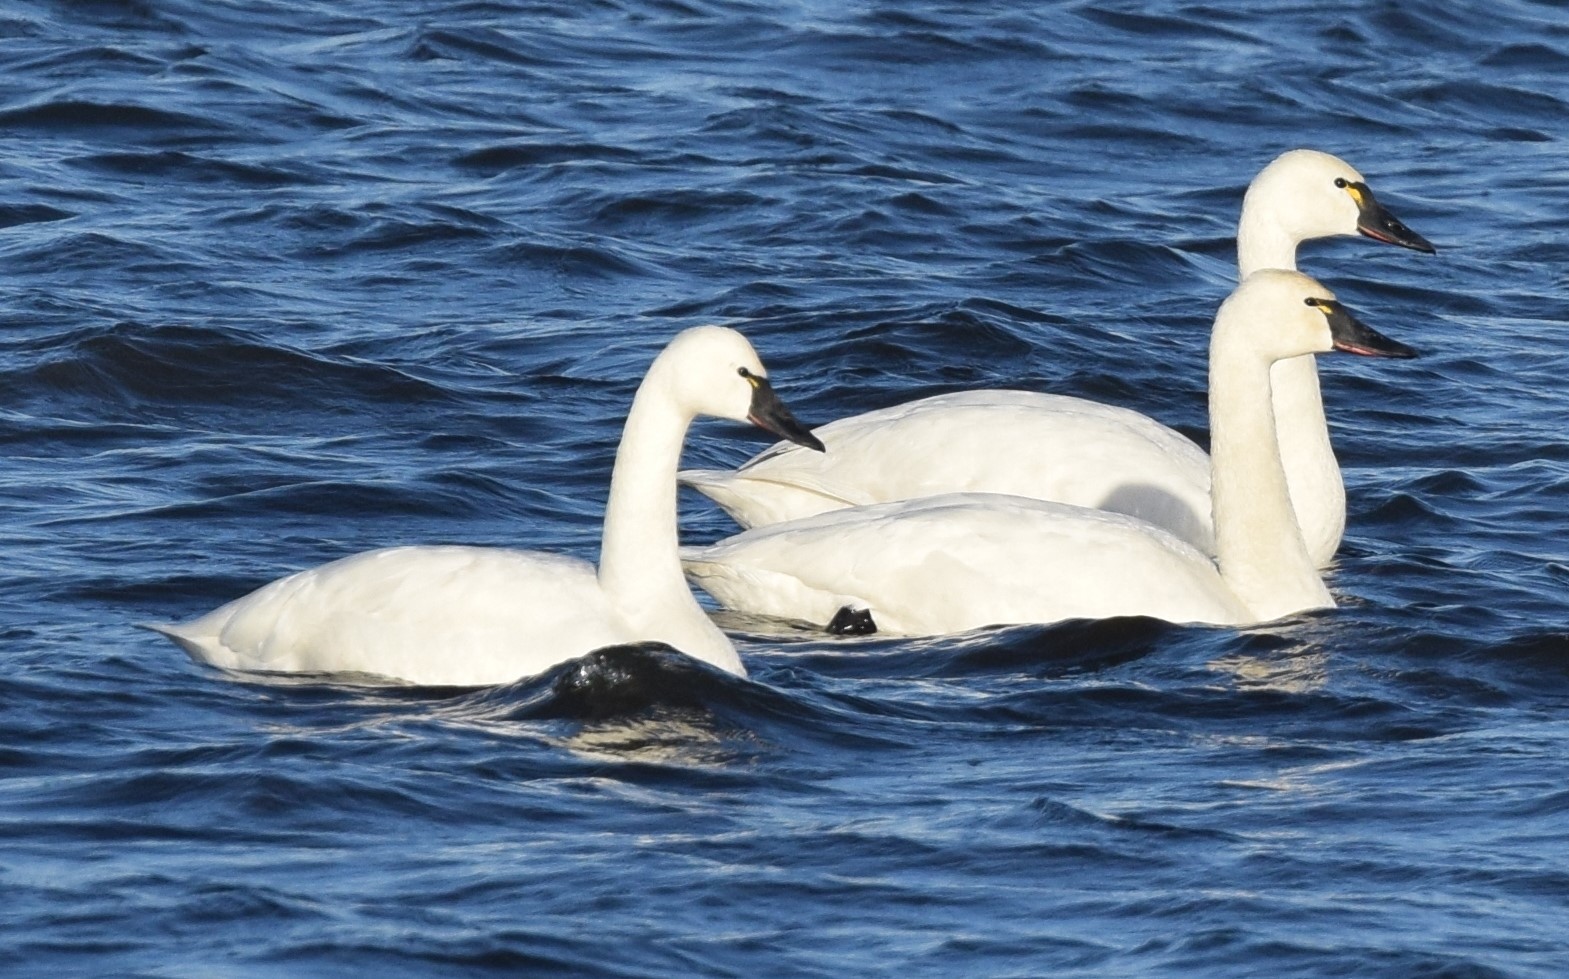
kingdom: Animalia
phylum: Chordata
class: Aves
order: Anseriformes
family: Anatidae
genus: Cygnus
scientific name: Cygnus columbianus
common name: Tundra swan
